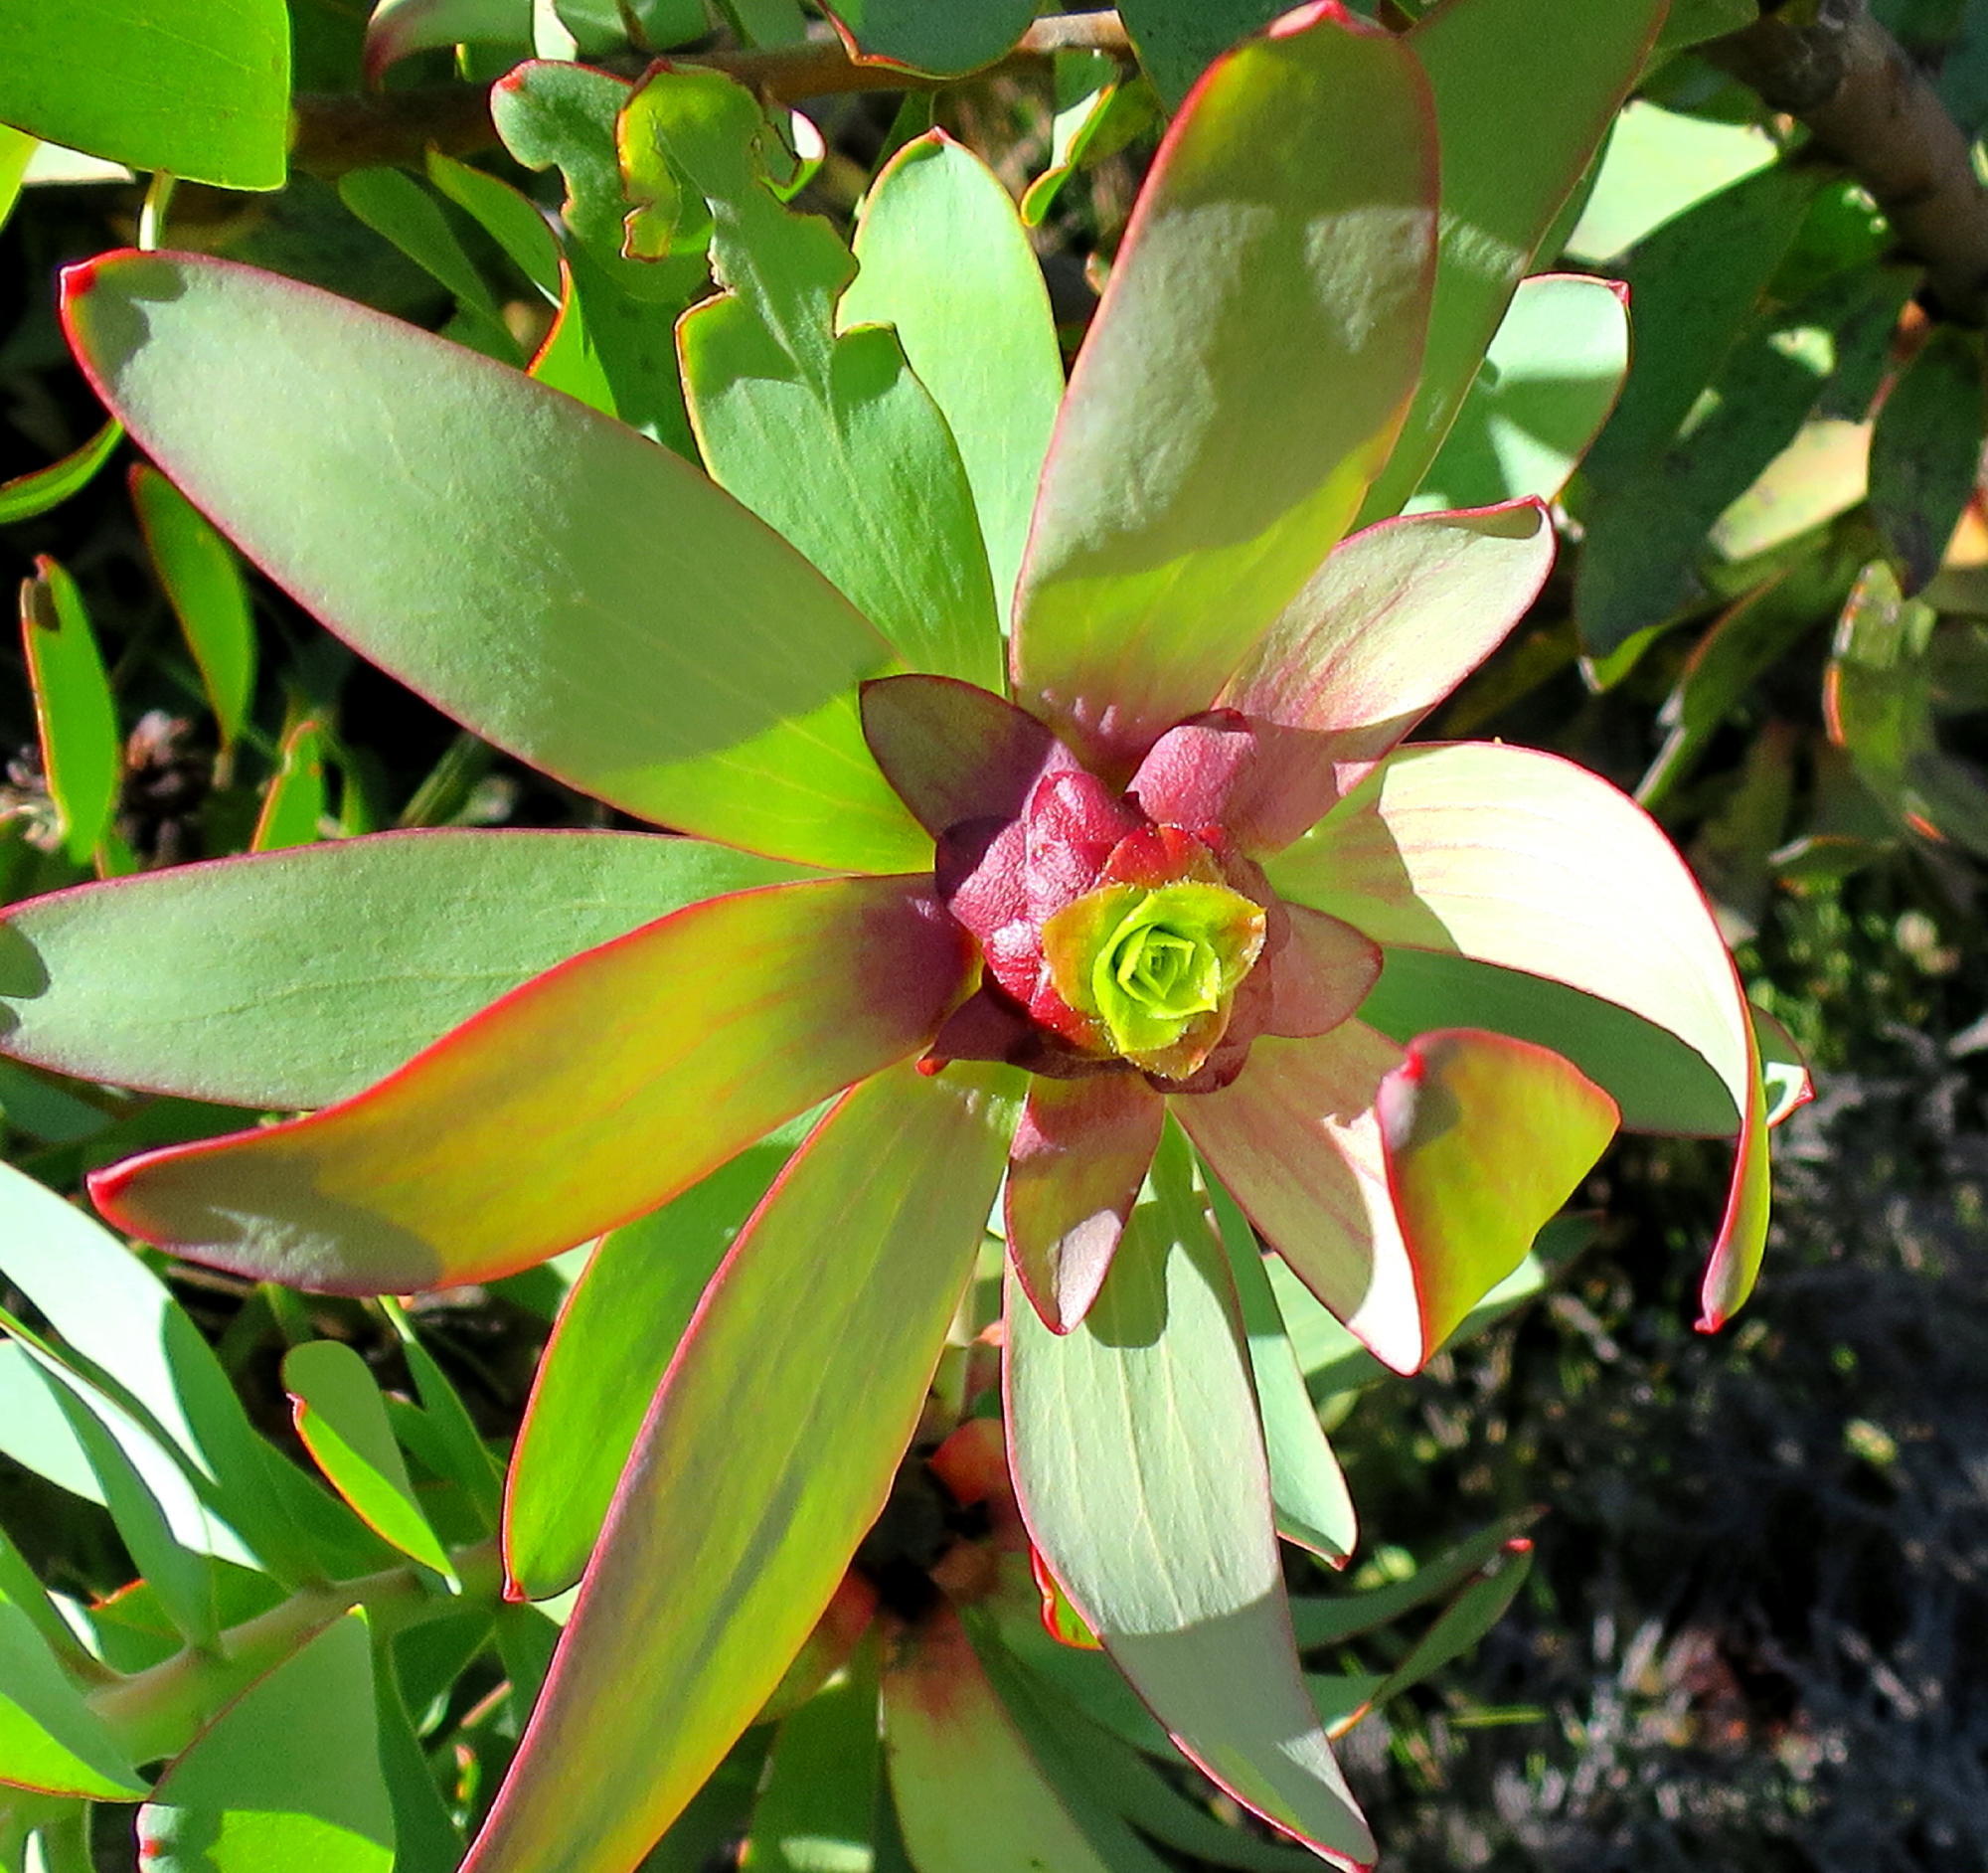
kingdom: Plantae
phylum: Tracheophyta
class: Magnoliopsida
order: Proteales
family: Proteaceae
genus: Leucadendron
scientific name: Leucadendron cordatum
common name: Droopy conebush
